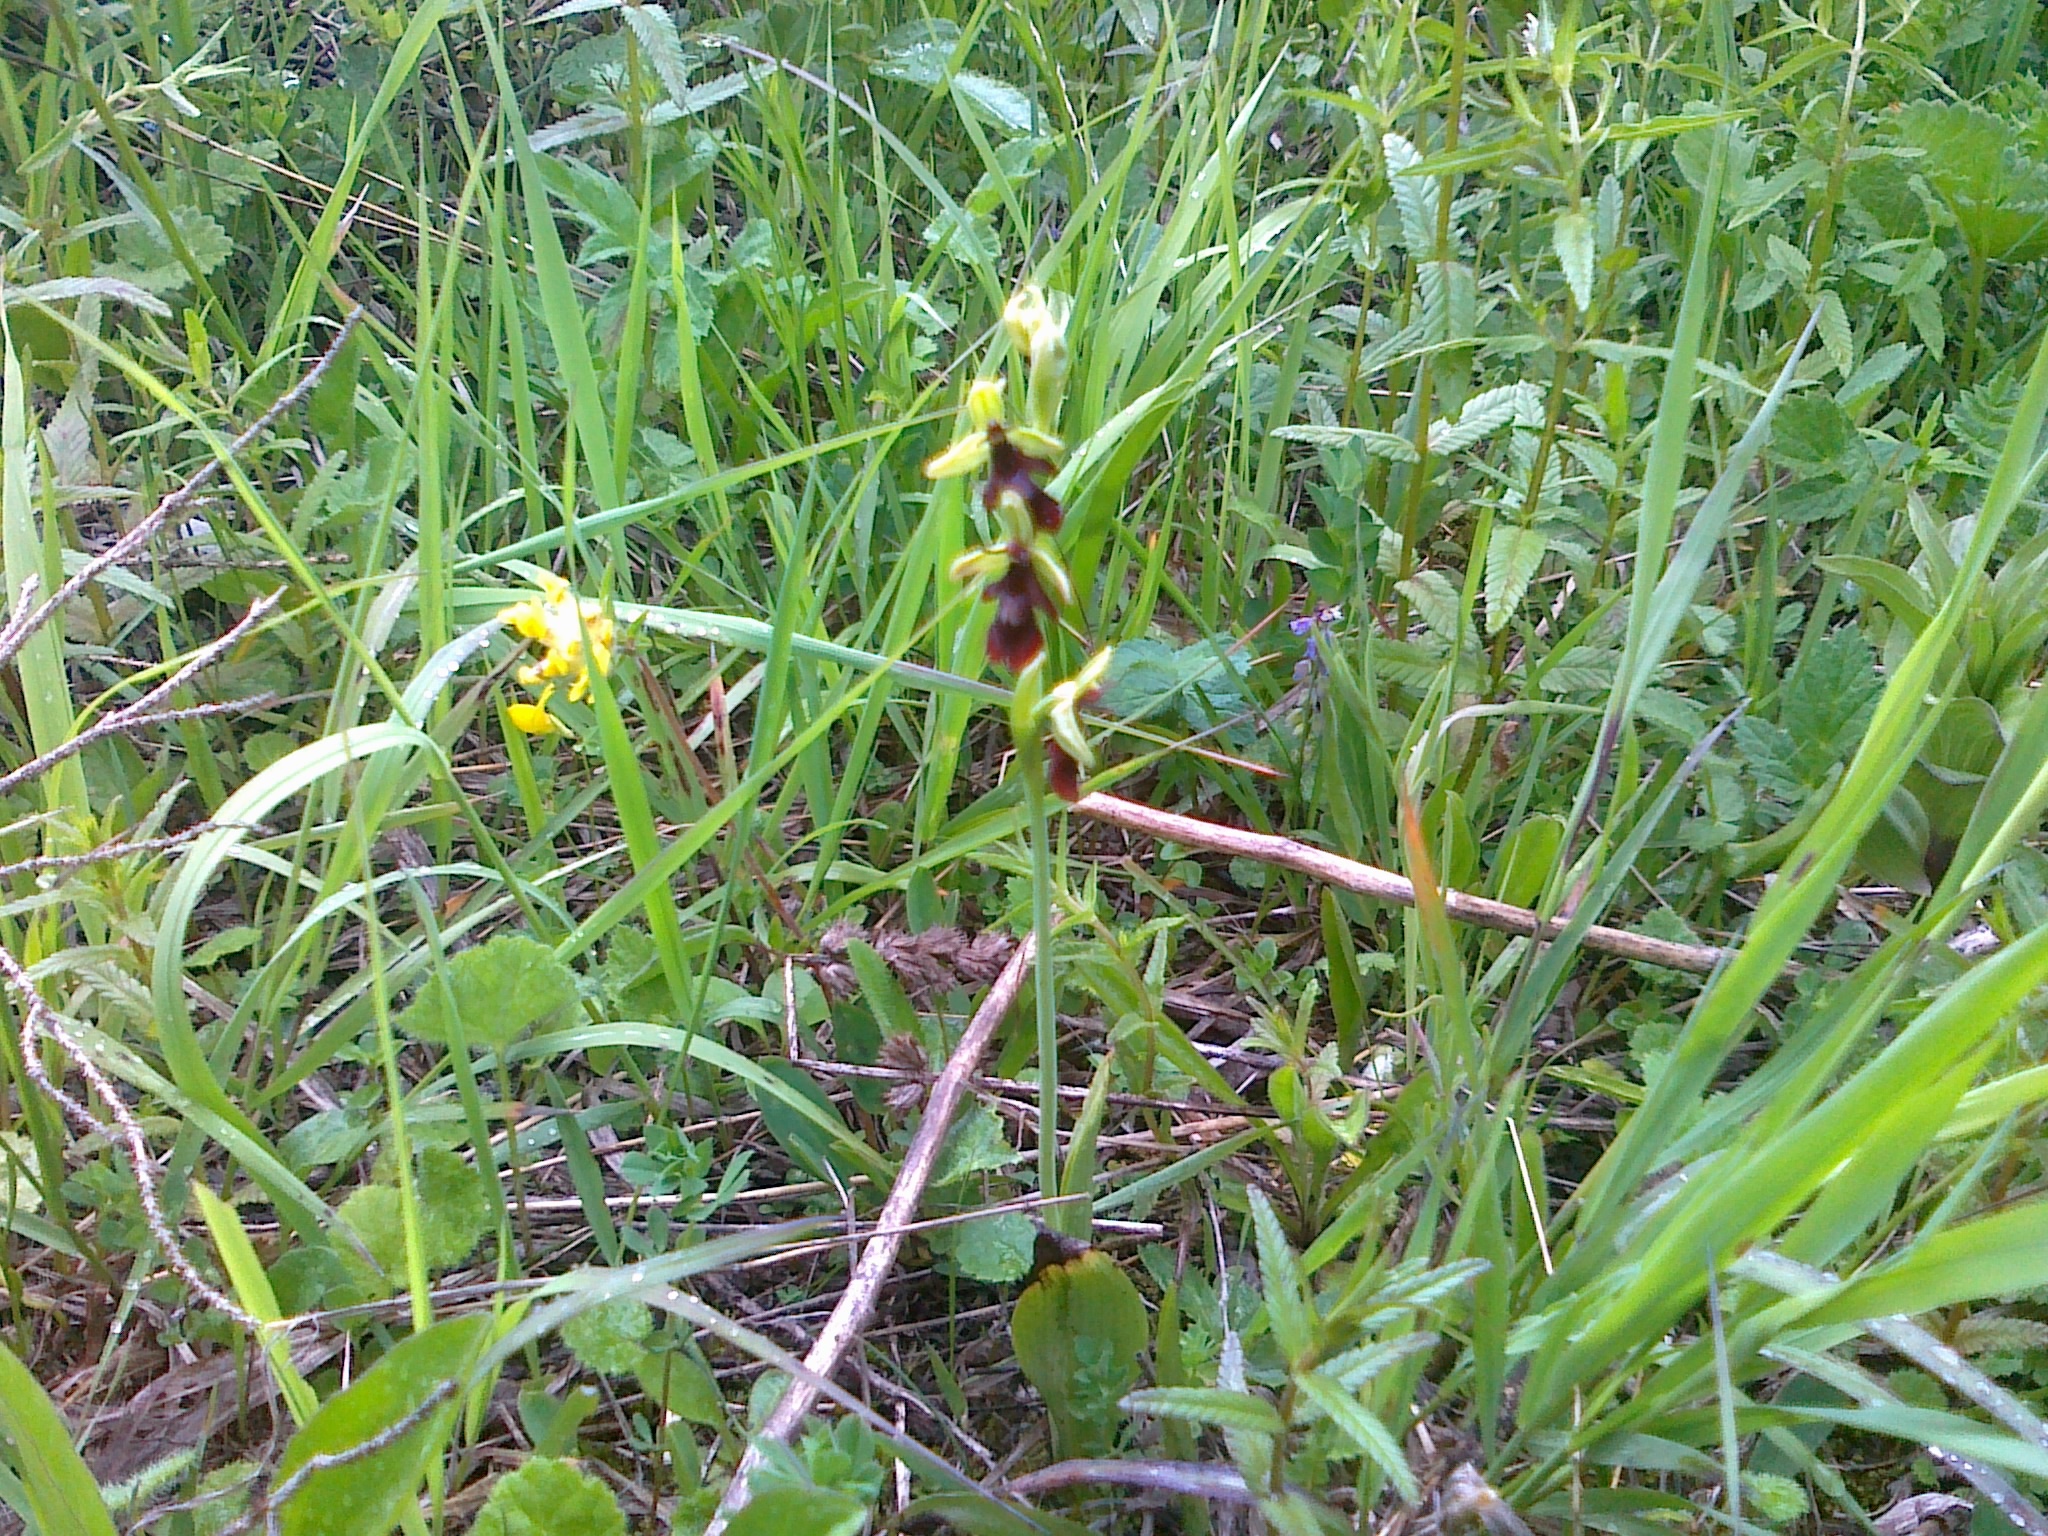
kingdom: Plantae
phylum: Tracheophyta
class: Liliopsida
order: Asparagales
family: Orchidaceae
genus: Ophrys
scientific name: Ophrys insectifera
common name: Fly orchid
